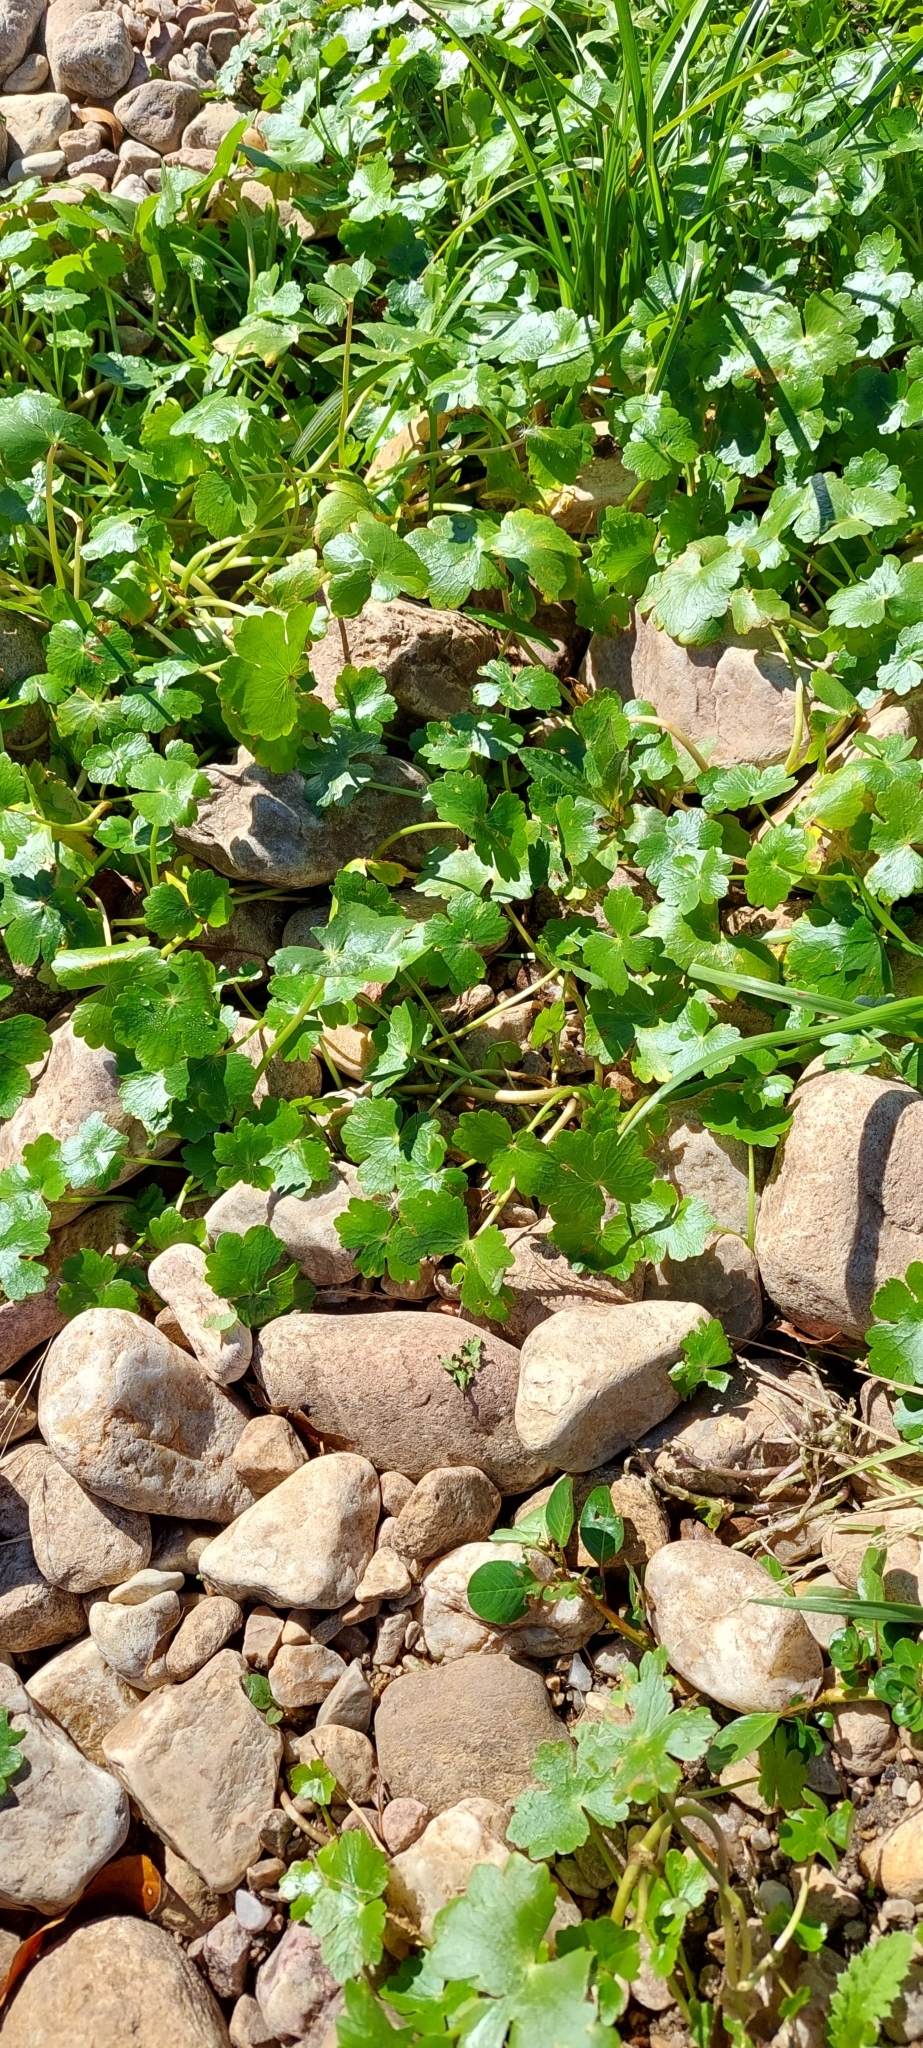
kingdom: Plantae
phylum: Tracheophyta
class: Magnoliopsida
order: Apiales
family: Araliaceae
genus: Hydrocotyle
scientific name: Hydrocotyle ranunculoides
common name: Floating pennywort
